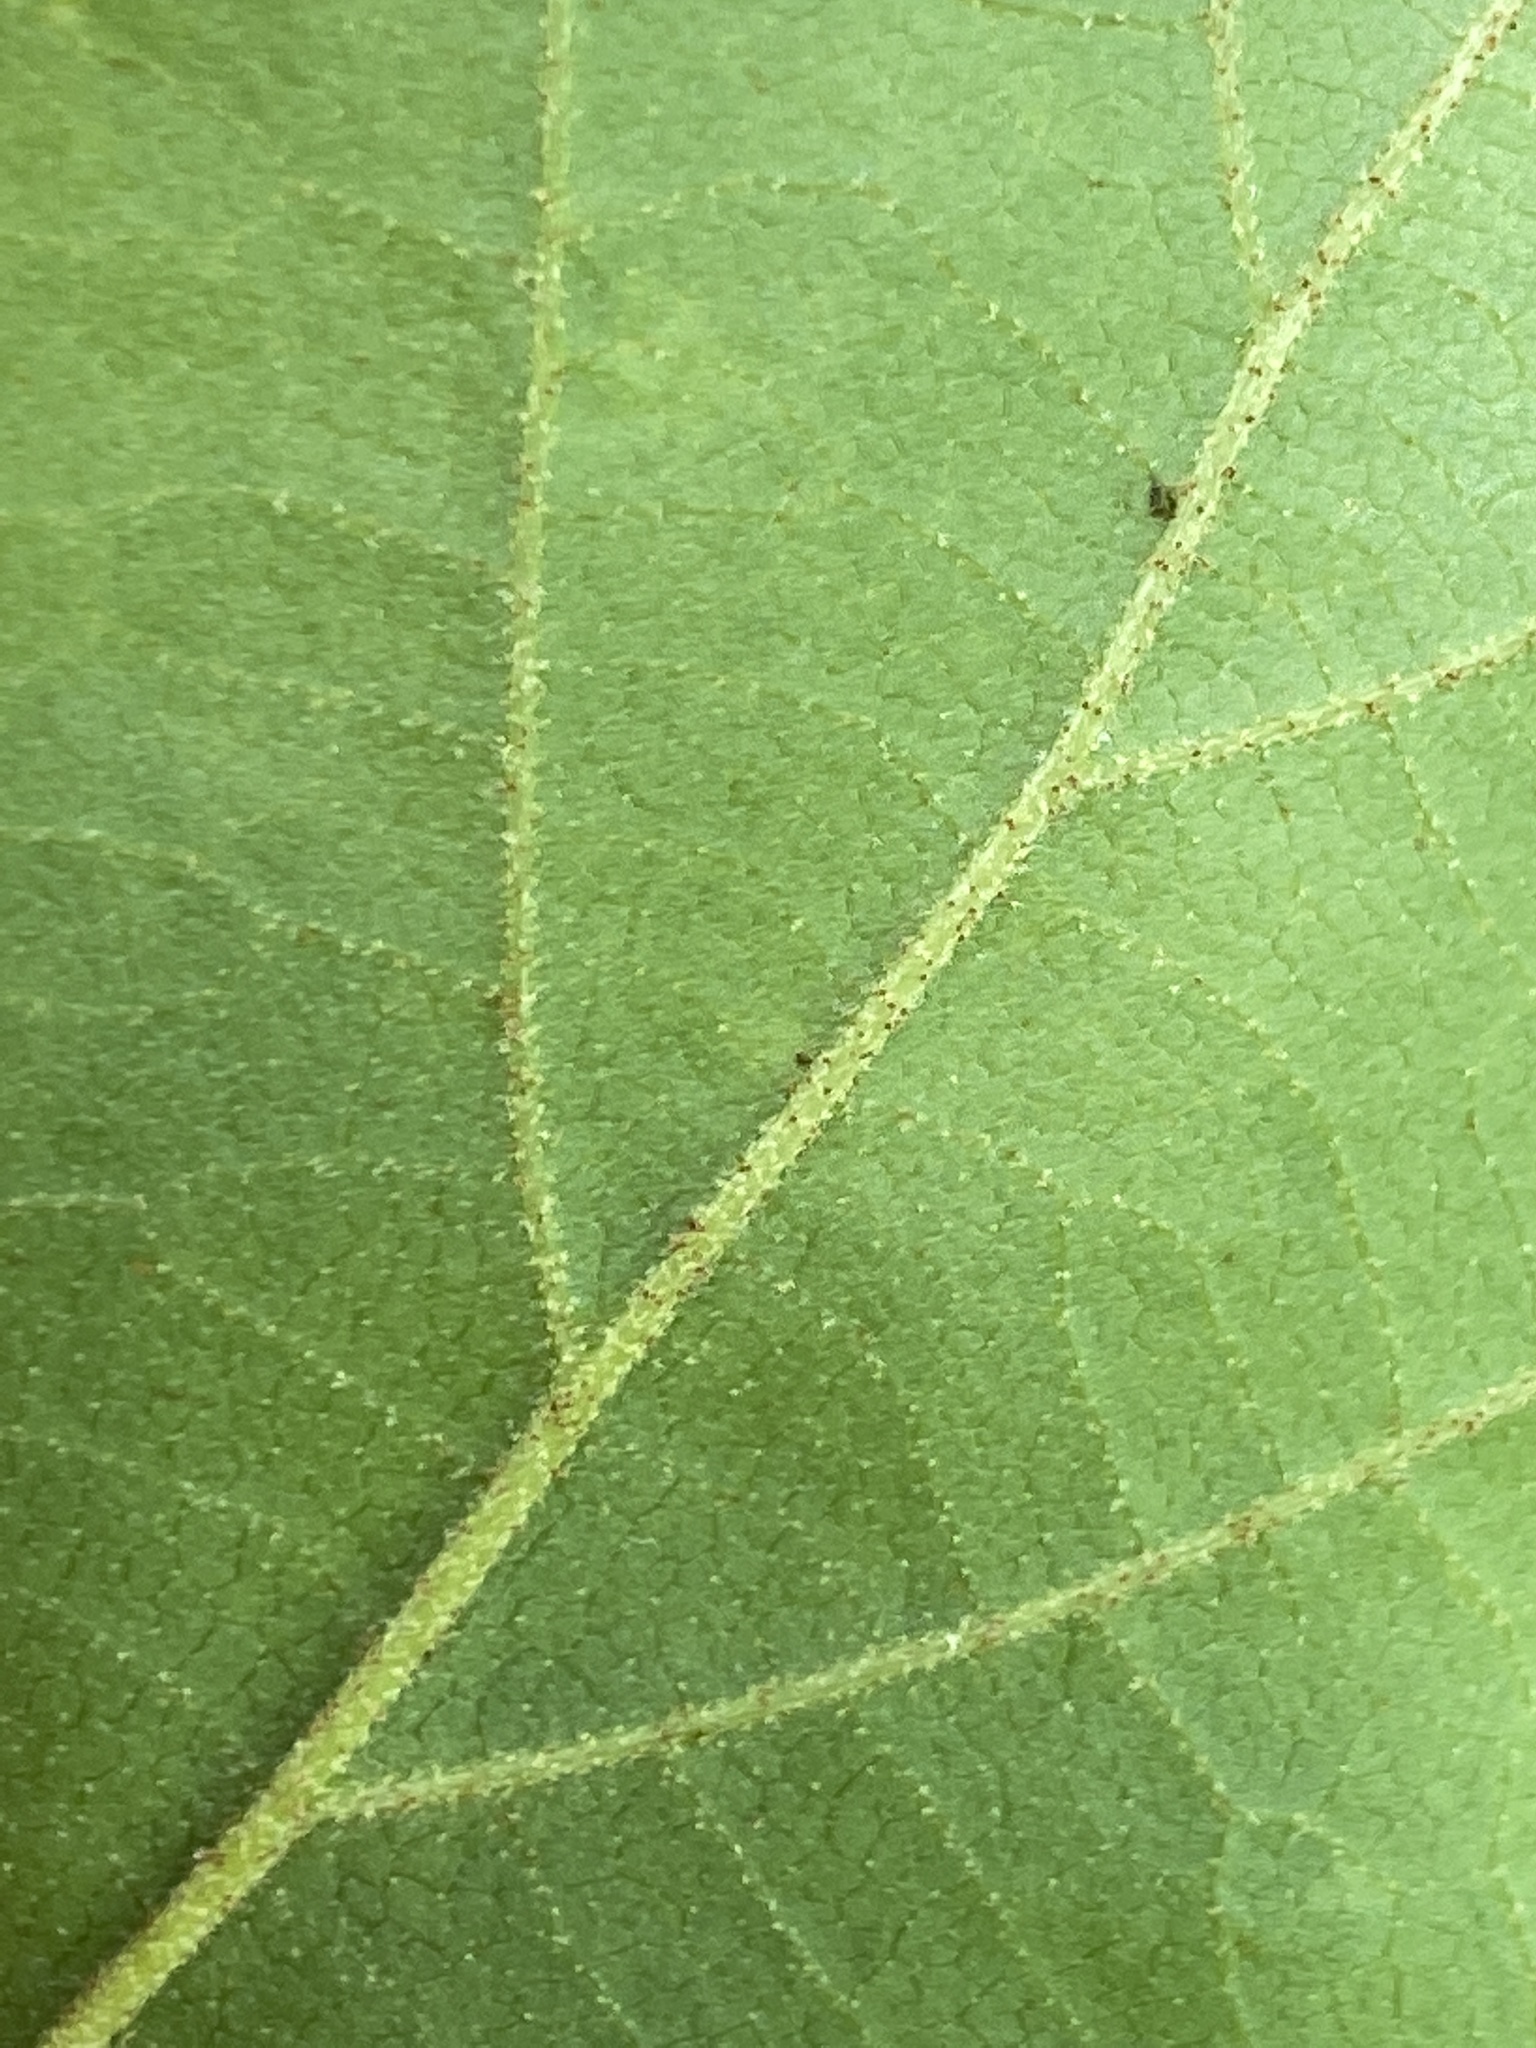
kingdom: Plantae
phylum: Tracheophyta
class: Magnoliopsida
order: Saxifragales
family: Hamamelidaceae
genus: Hamamelis
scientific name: Hamamelis virginiana
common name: Witch-hazel
